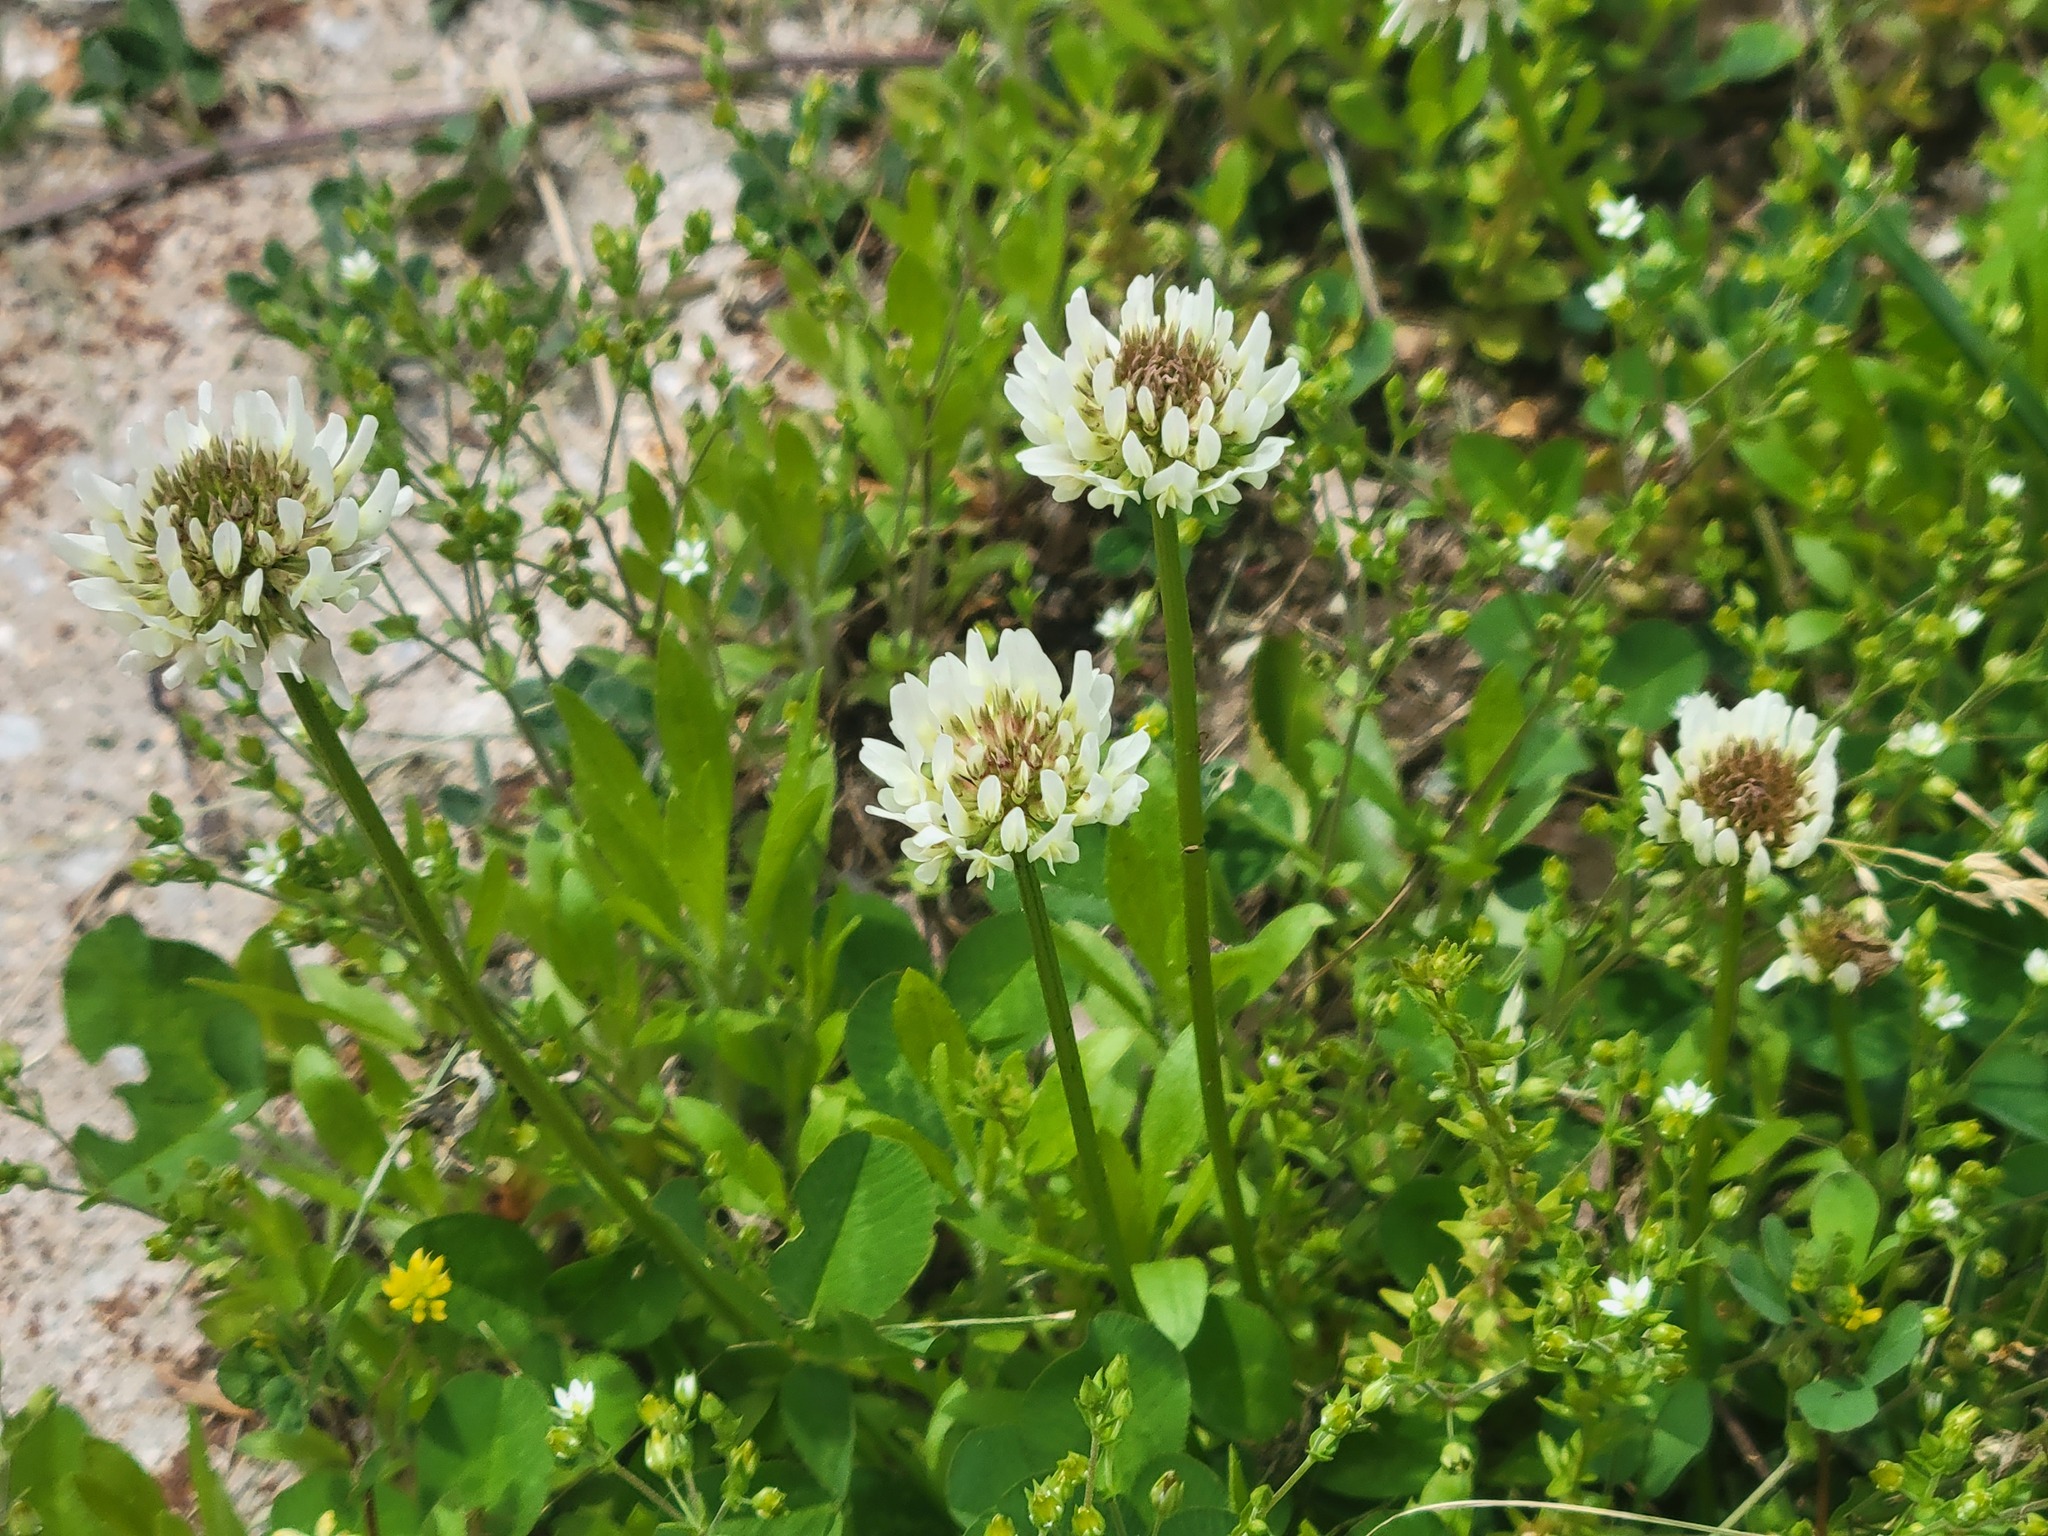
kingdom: Plantae
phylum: Tracheophyta
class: Magnoliopsida
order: Fabales
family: Fabaceae
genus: Trifolium
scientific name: Trifolium repens
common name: White clover
